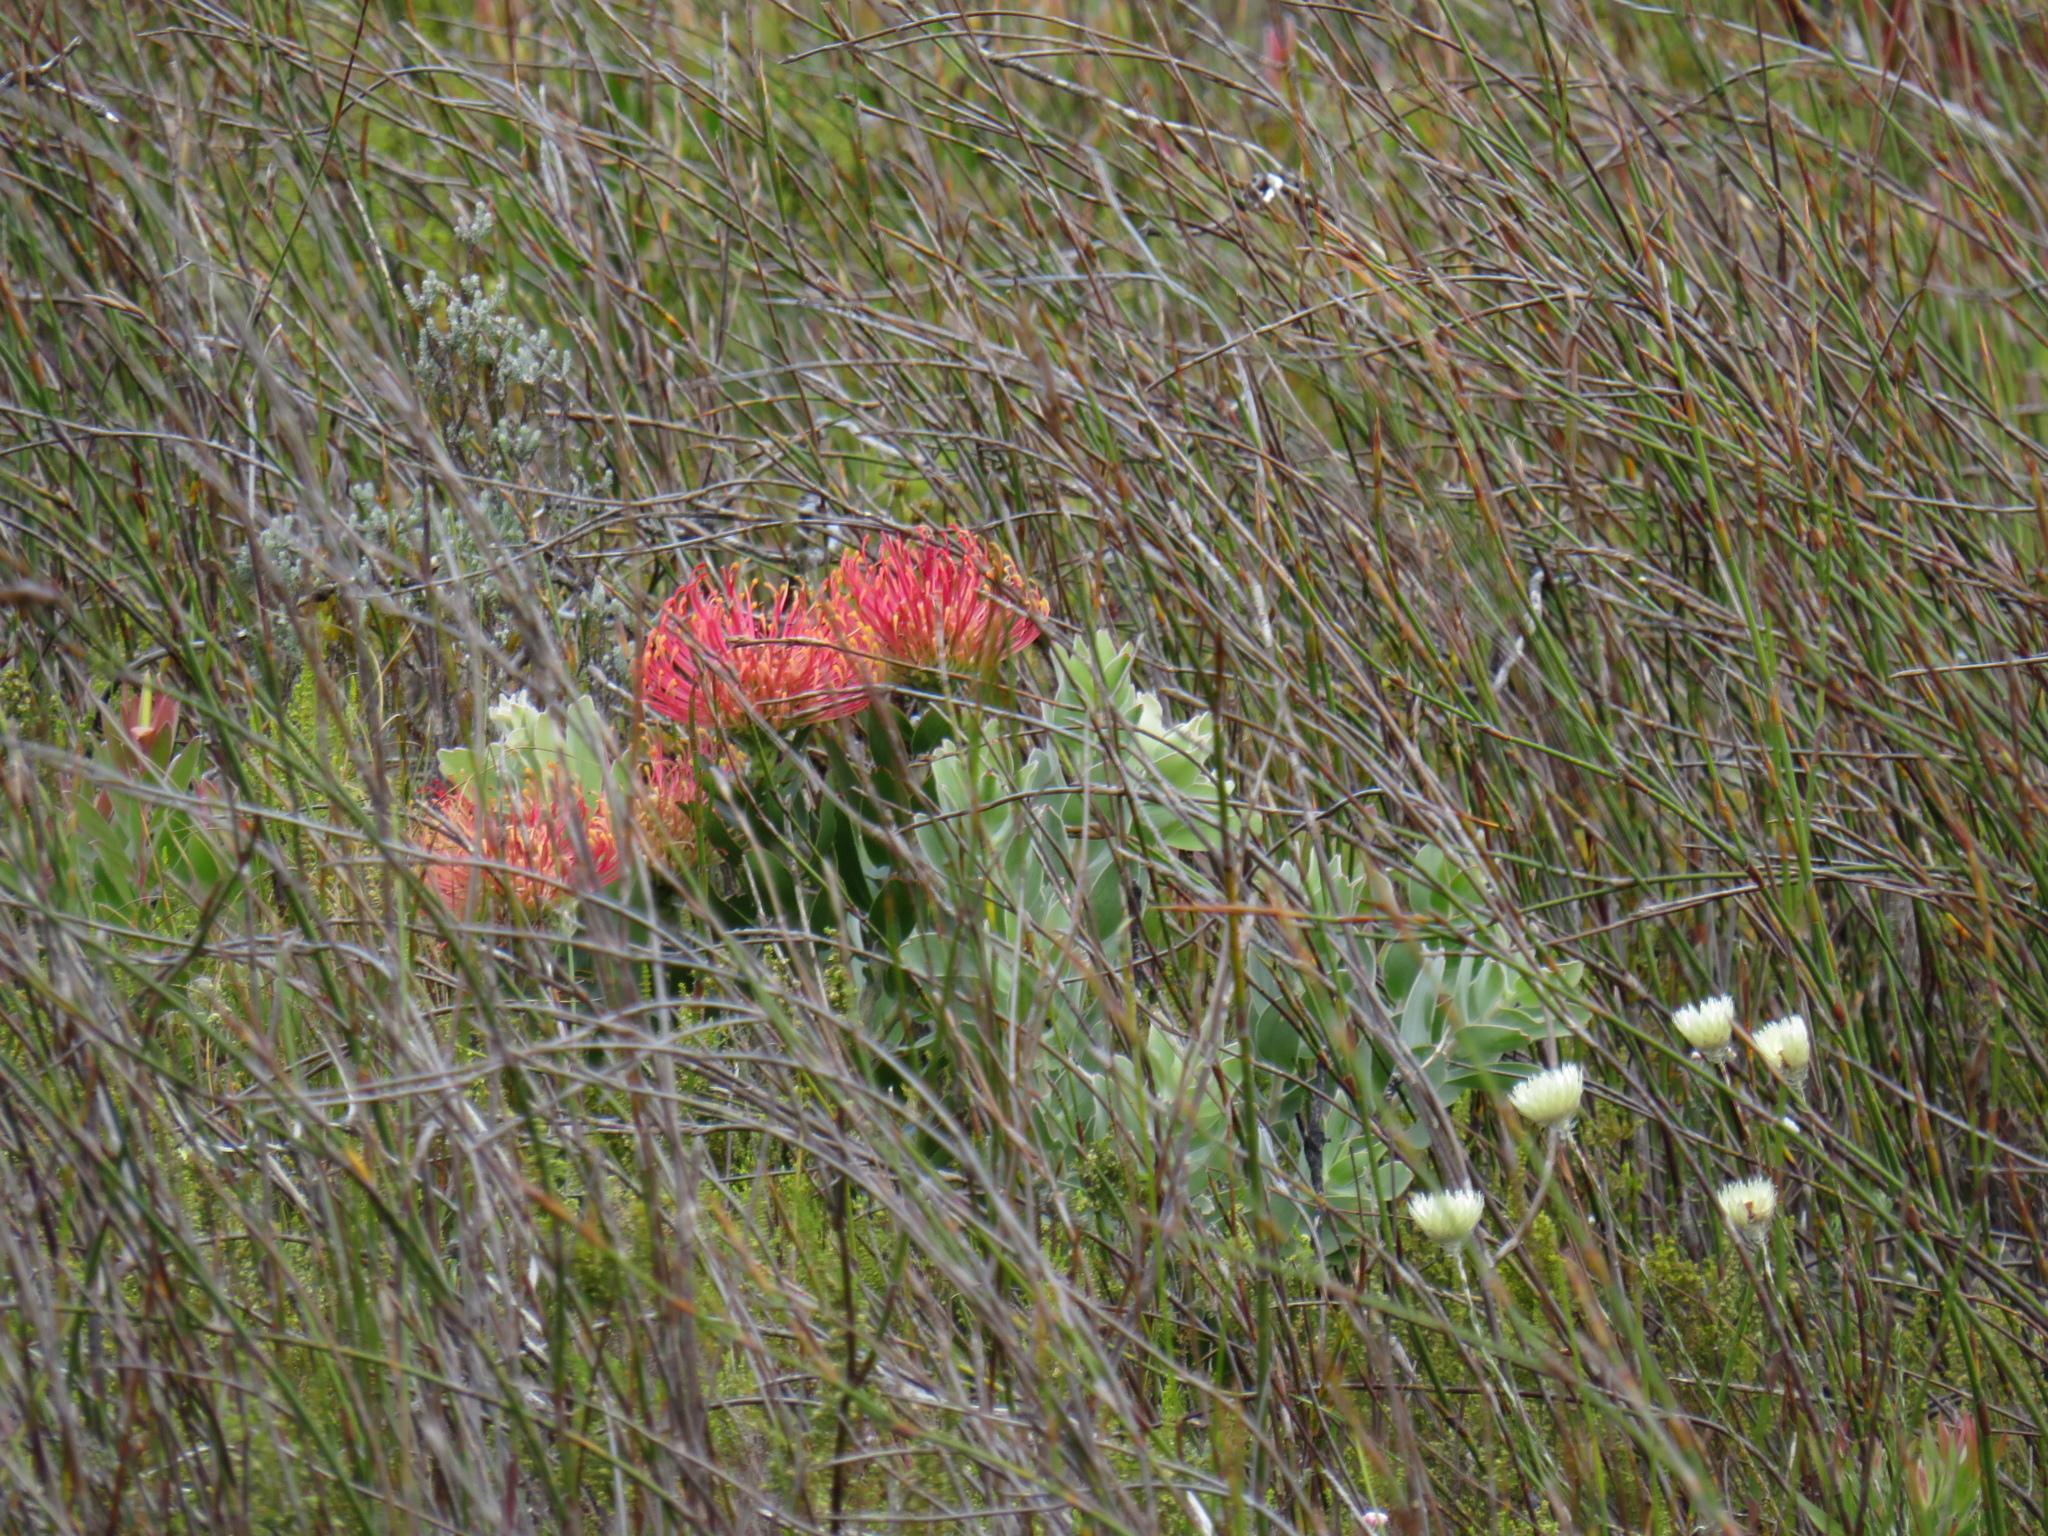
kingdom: Plantae
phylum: Tracheophyta
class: Magnoliopsida
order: Proteales
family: Proteaceae
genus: Leucospermum
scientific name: Leucospermum cordifolium
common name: Red pincushion-protea
